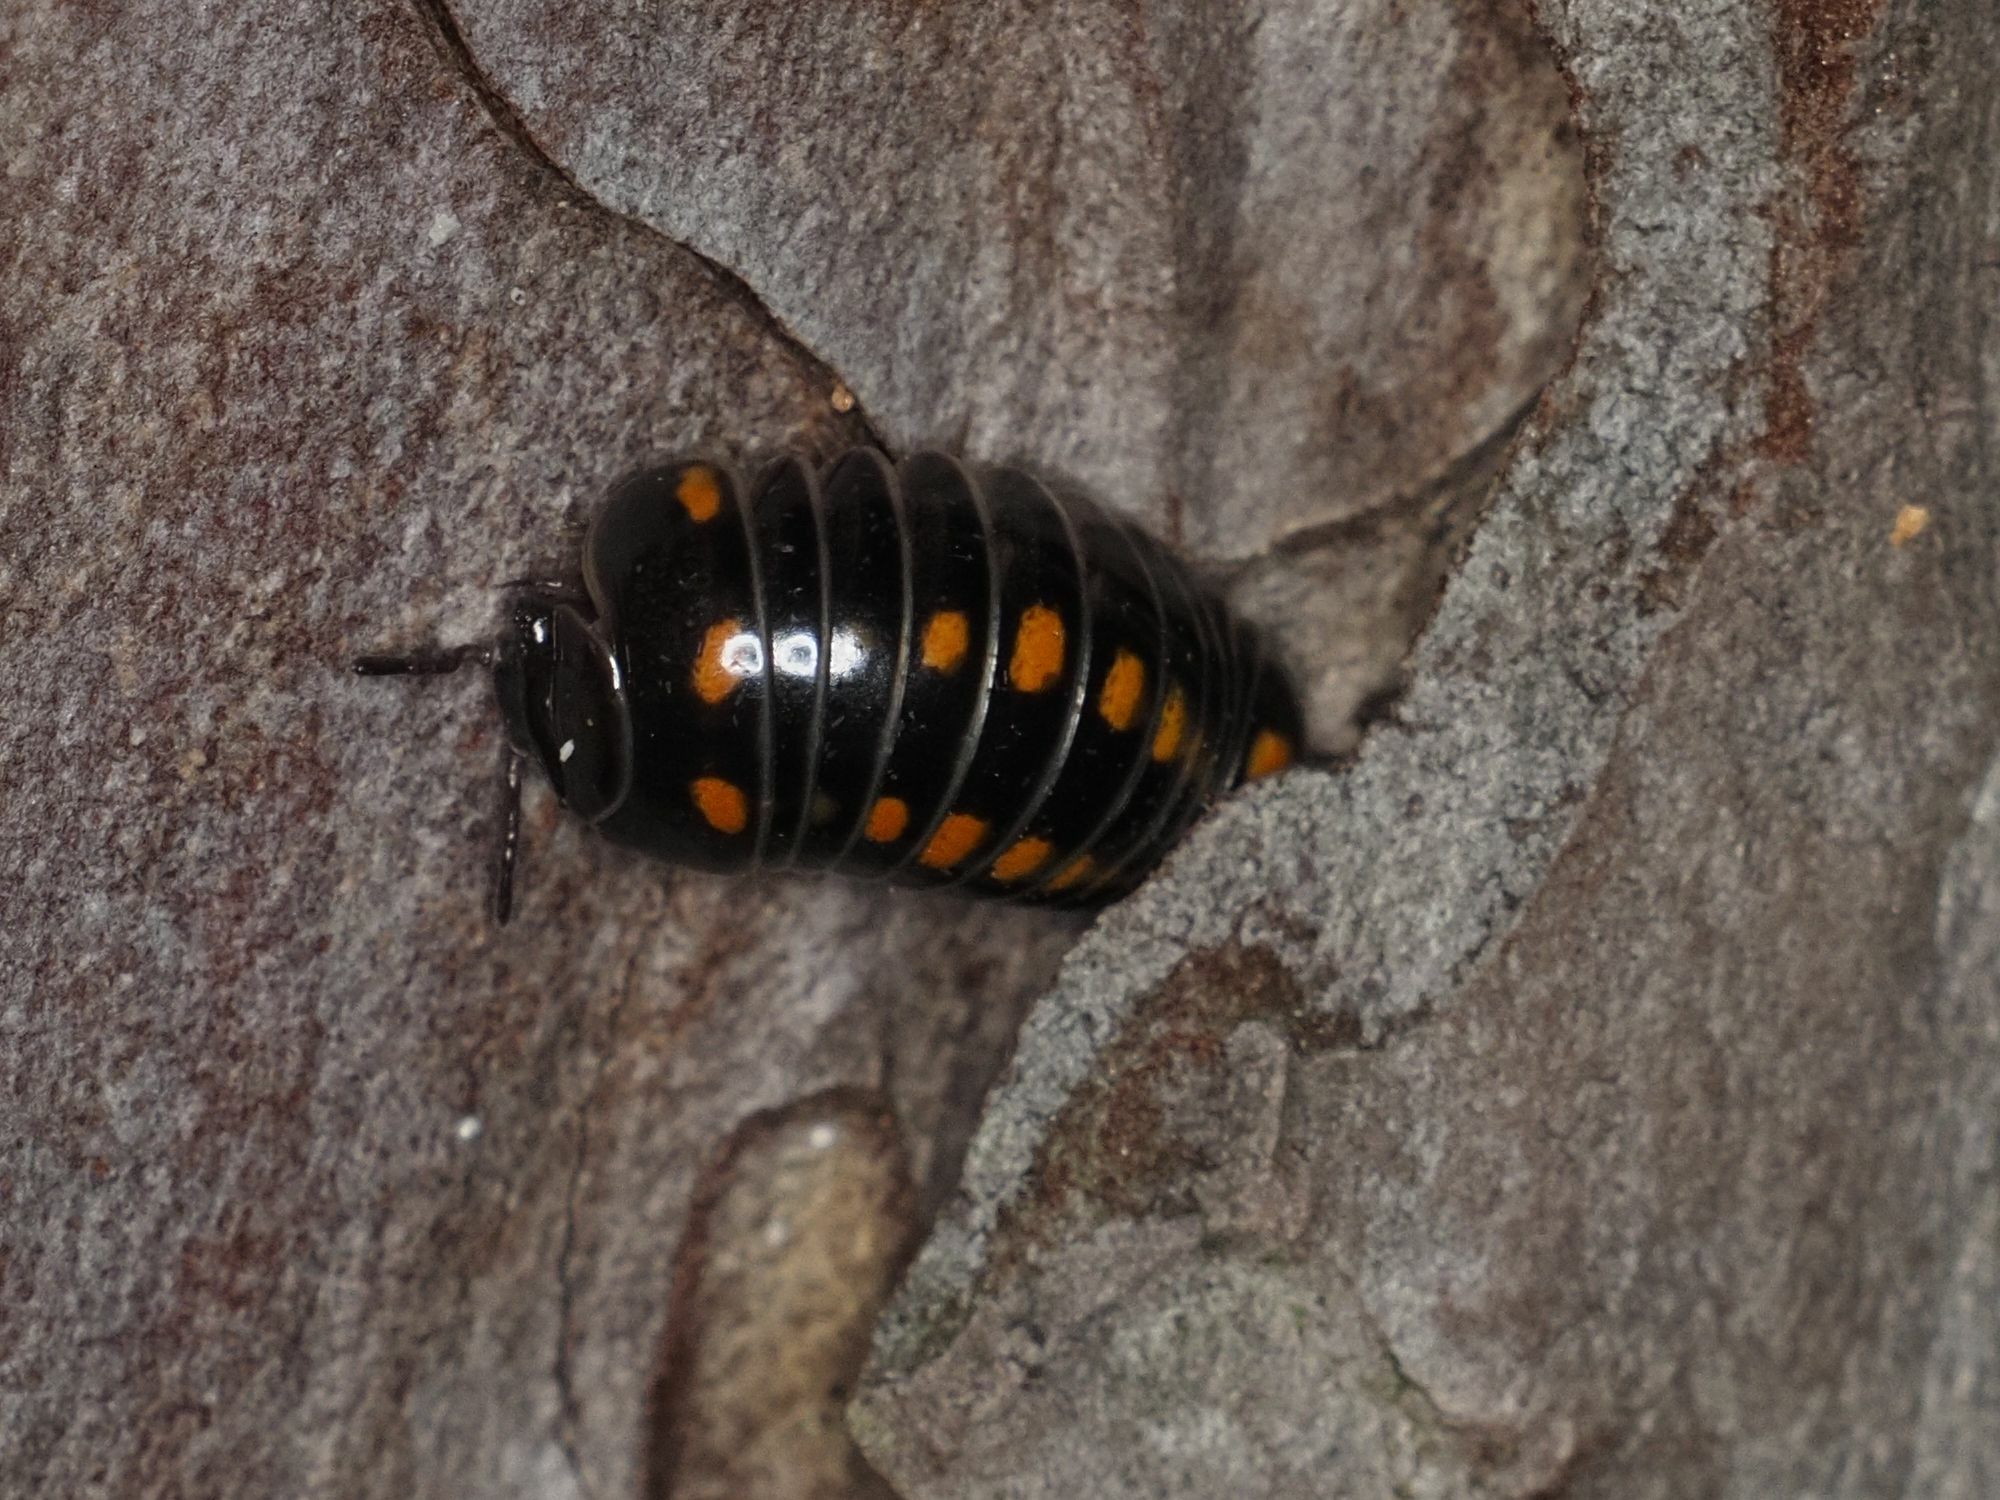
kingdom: Animalia
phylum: Arthropoda
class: Diplopoda
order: Glomerida
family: Glomeridae
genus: Glomeris
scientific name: Glomeris pustulata
